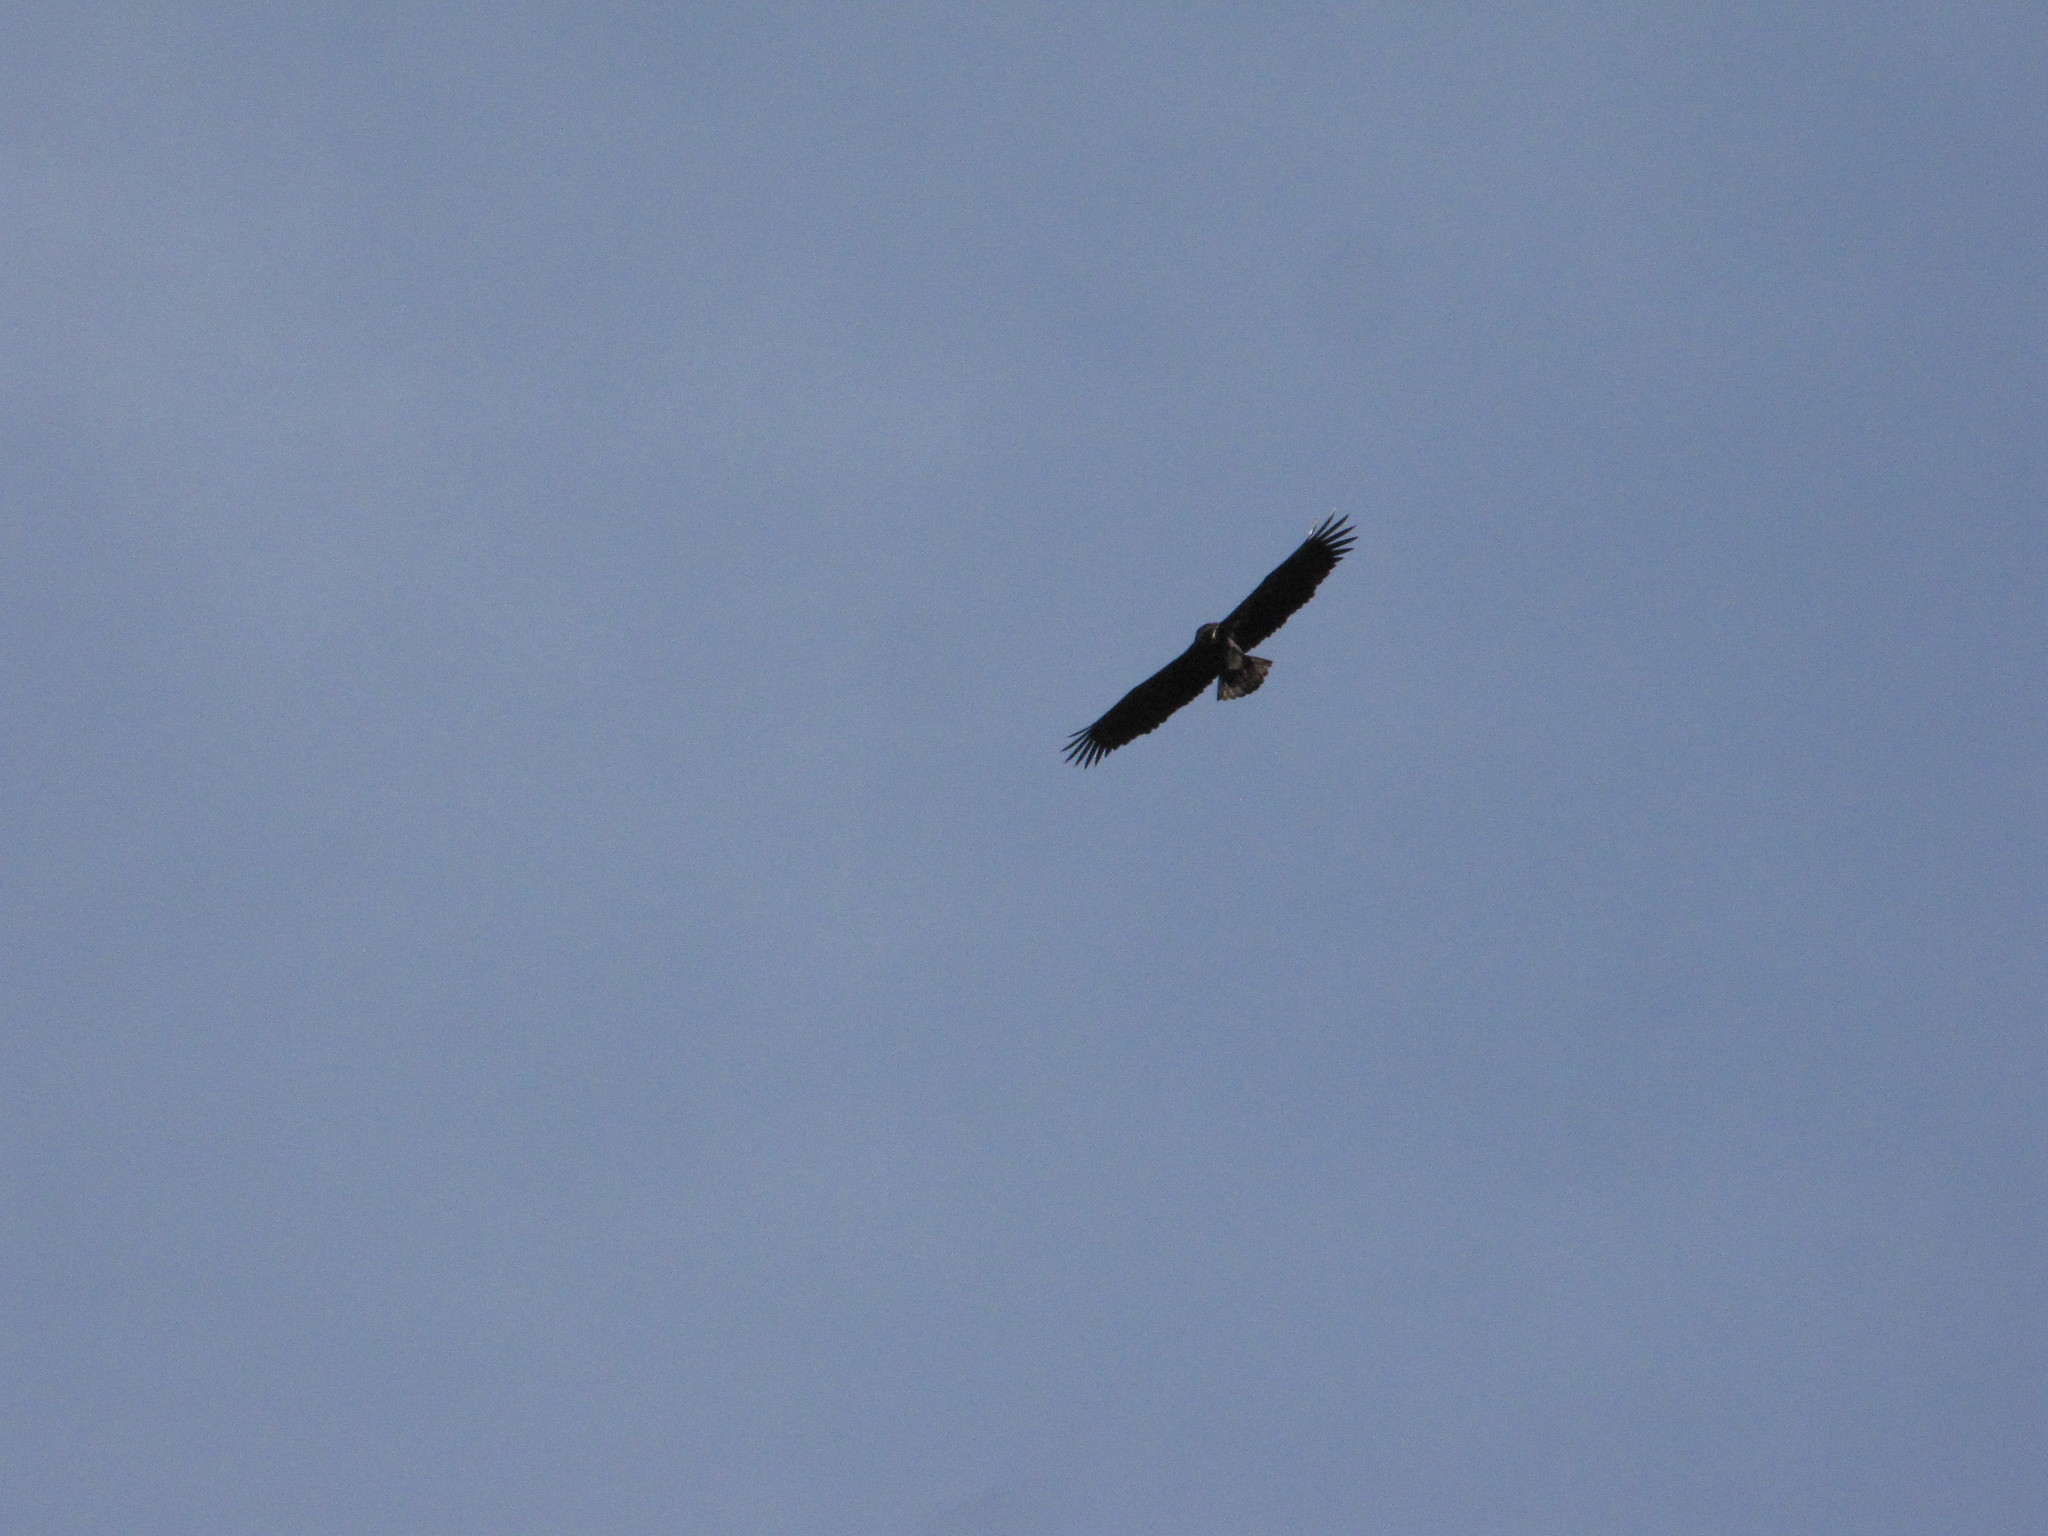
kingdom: Animalia
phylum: Chordata
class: Aves
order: Accipitriformes
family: Accipitridae
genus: Haliaeetus
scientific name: Haliaeetus leucocephalus
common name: Bald eagle
